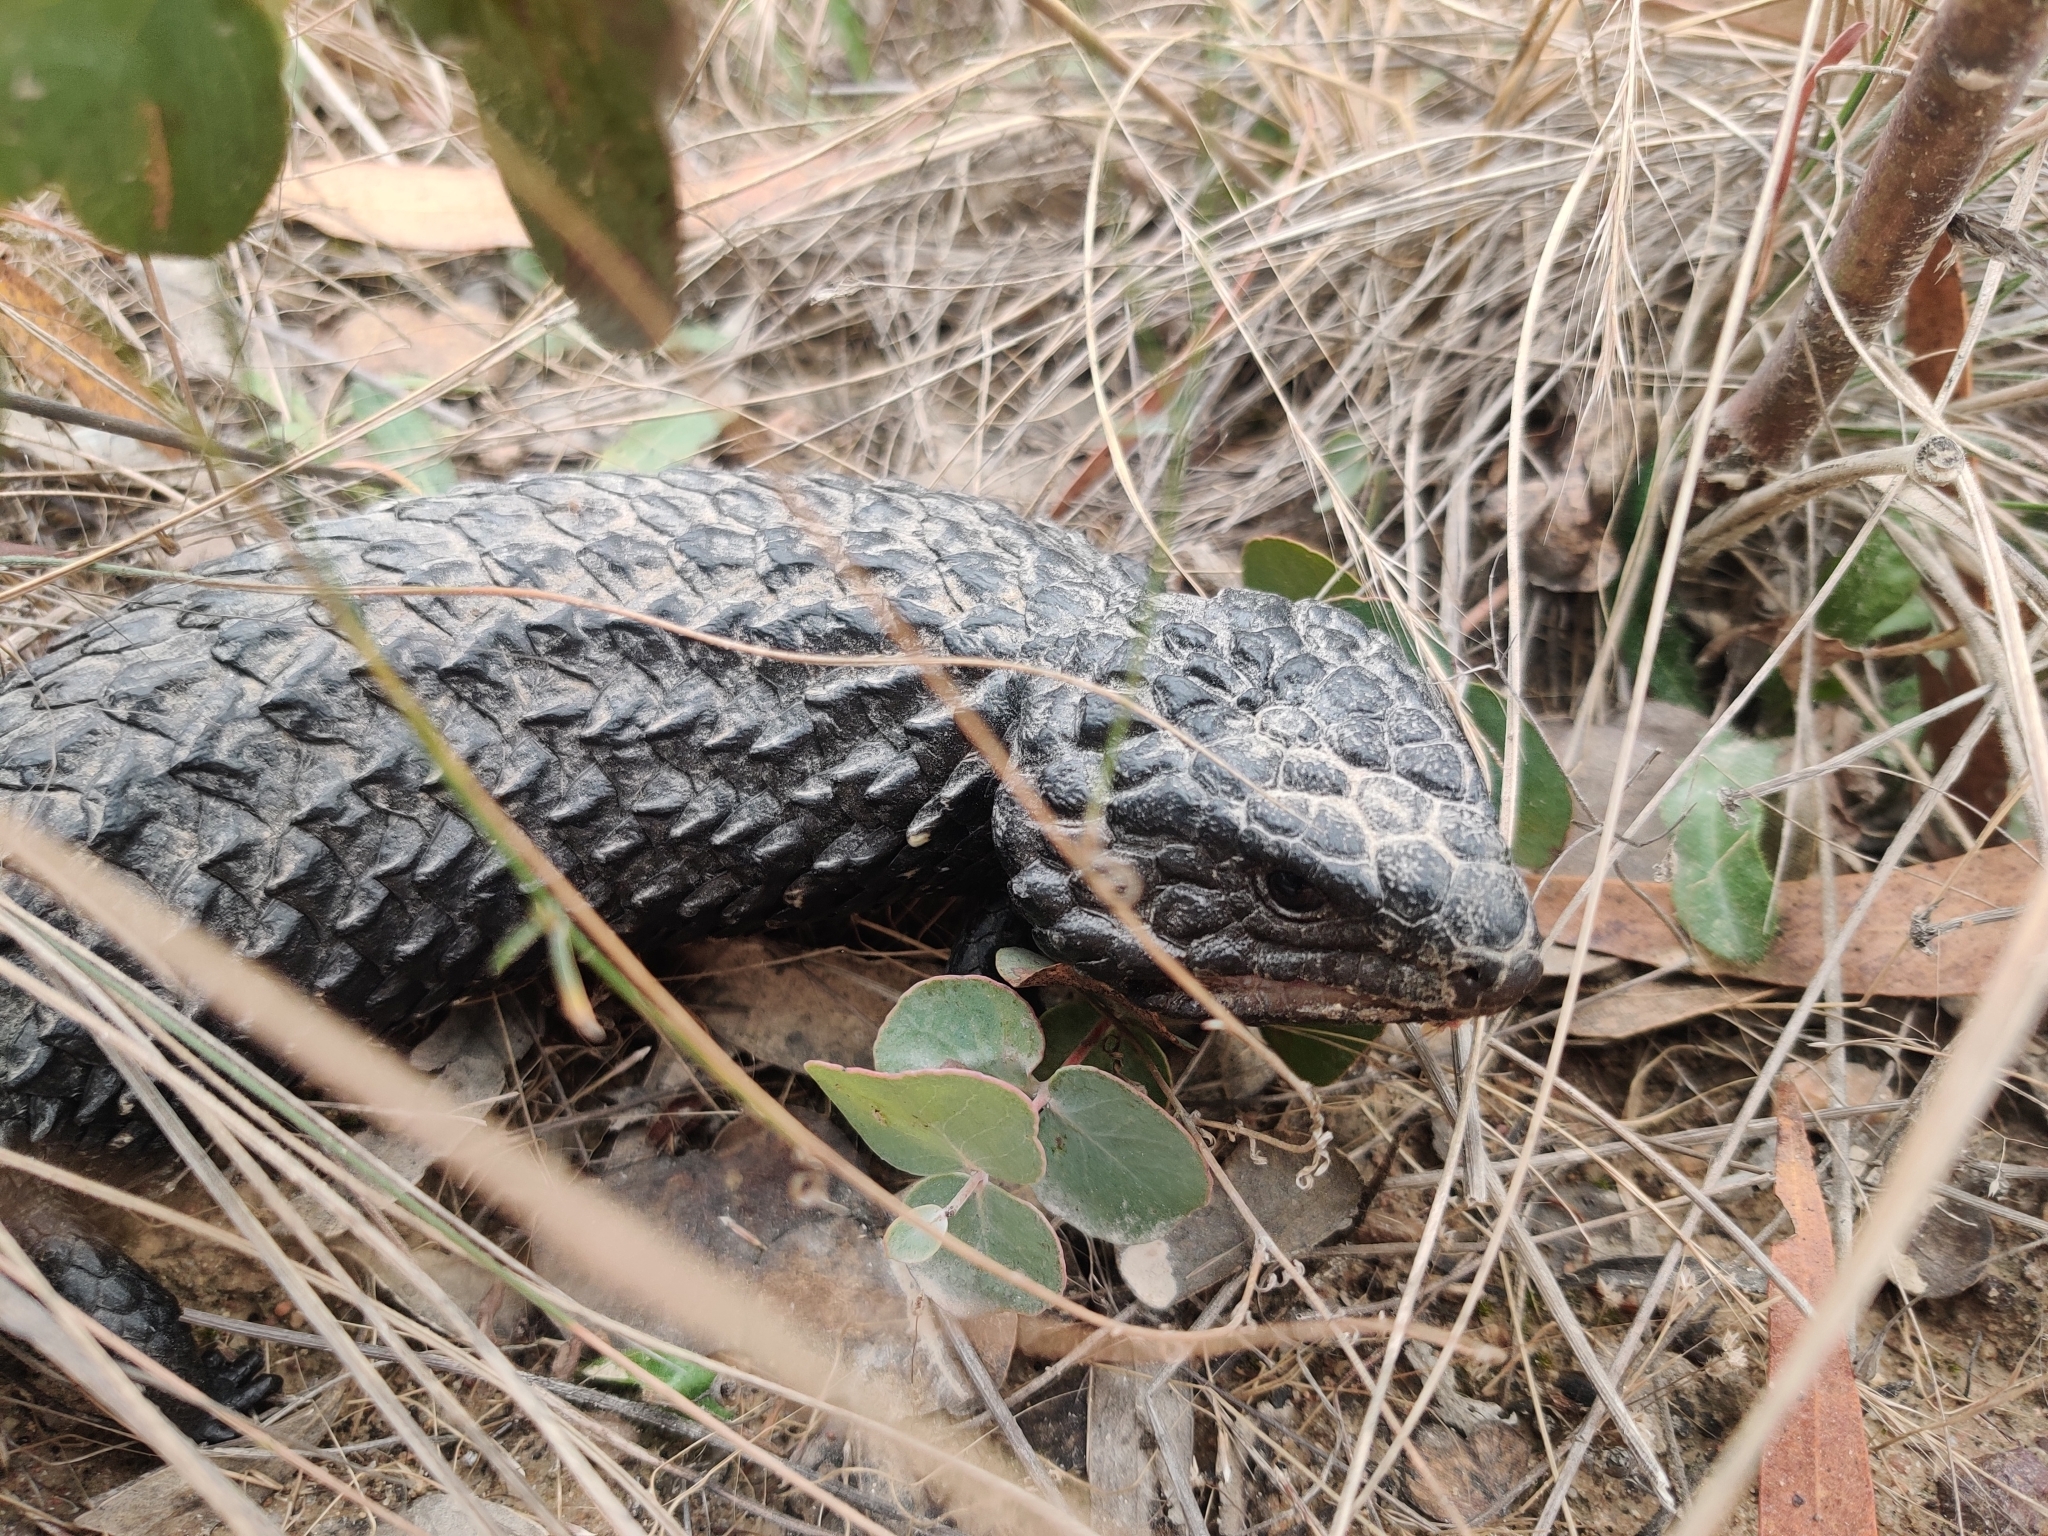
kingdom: Animalia
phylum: Chordata
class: Squamata
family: Scincidae
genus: Tiliqua
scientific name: Tiliqua rugosa
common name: Pinecone lizard
